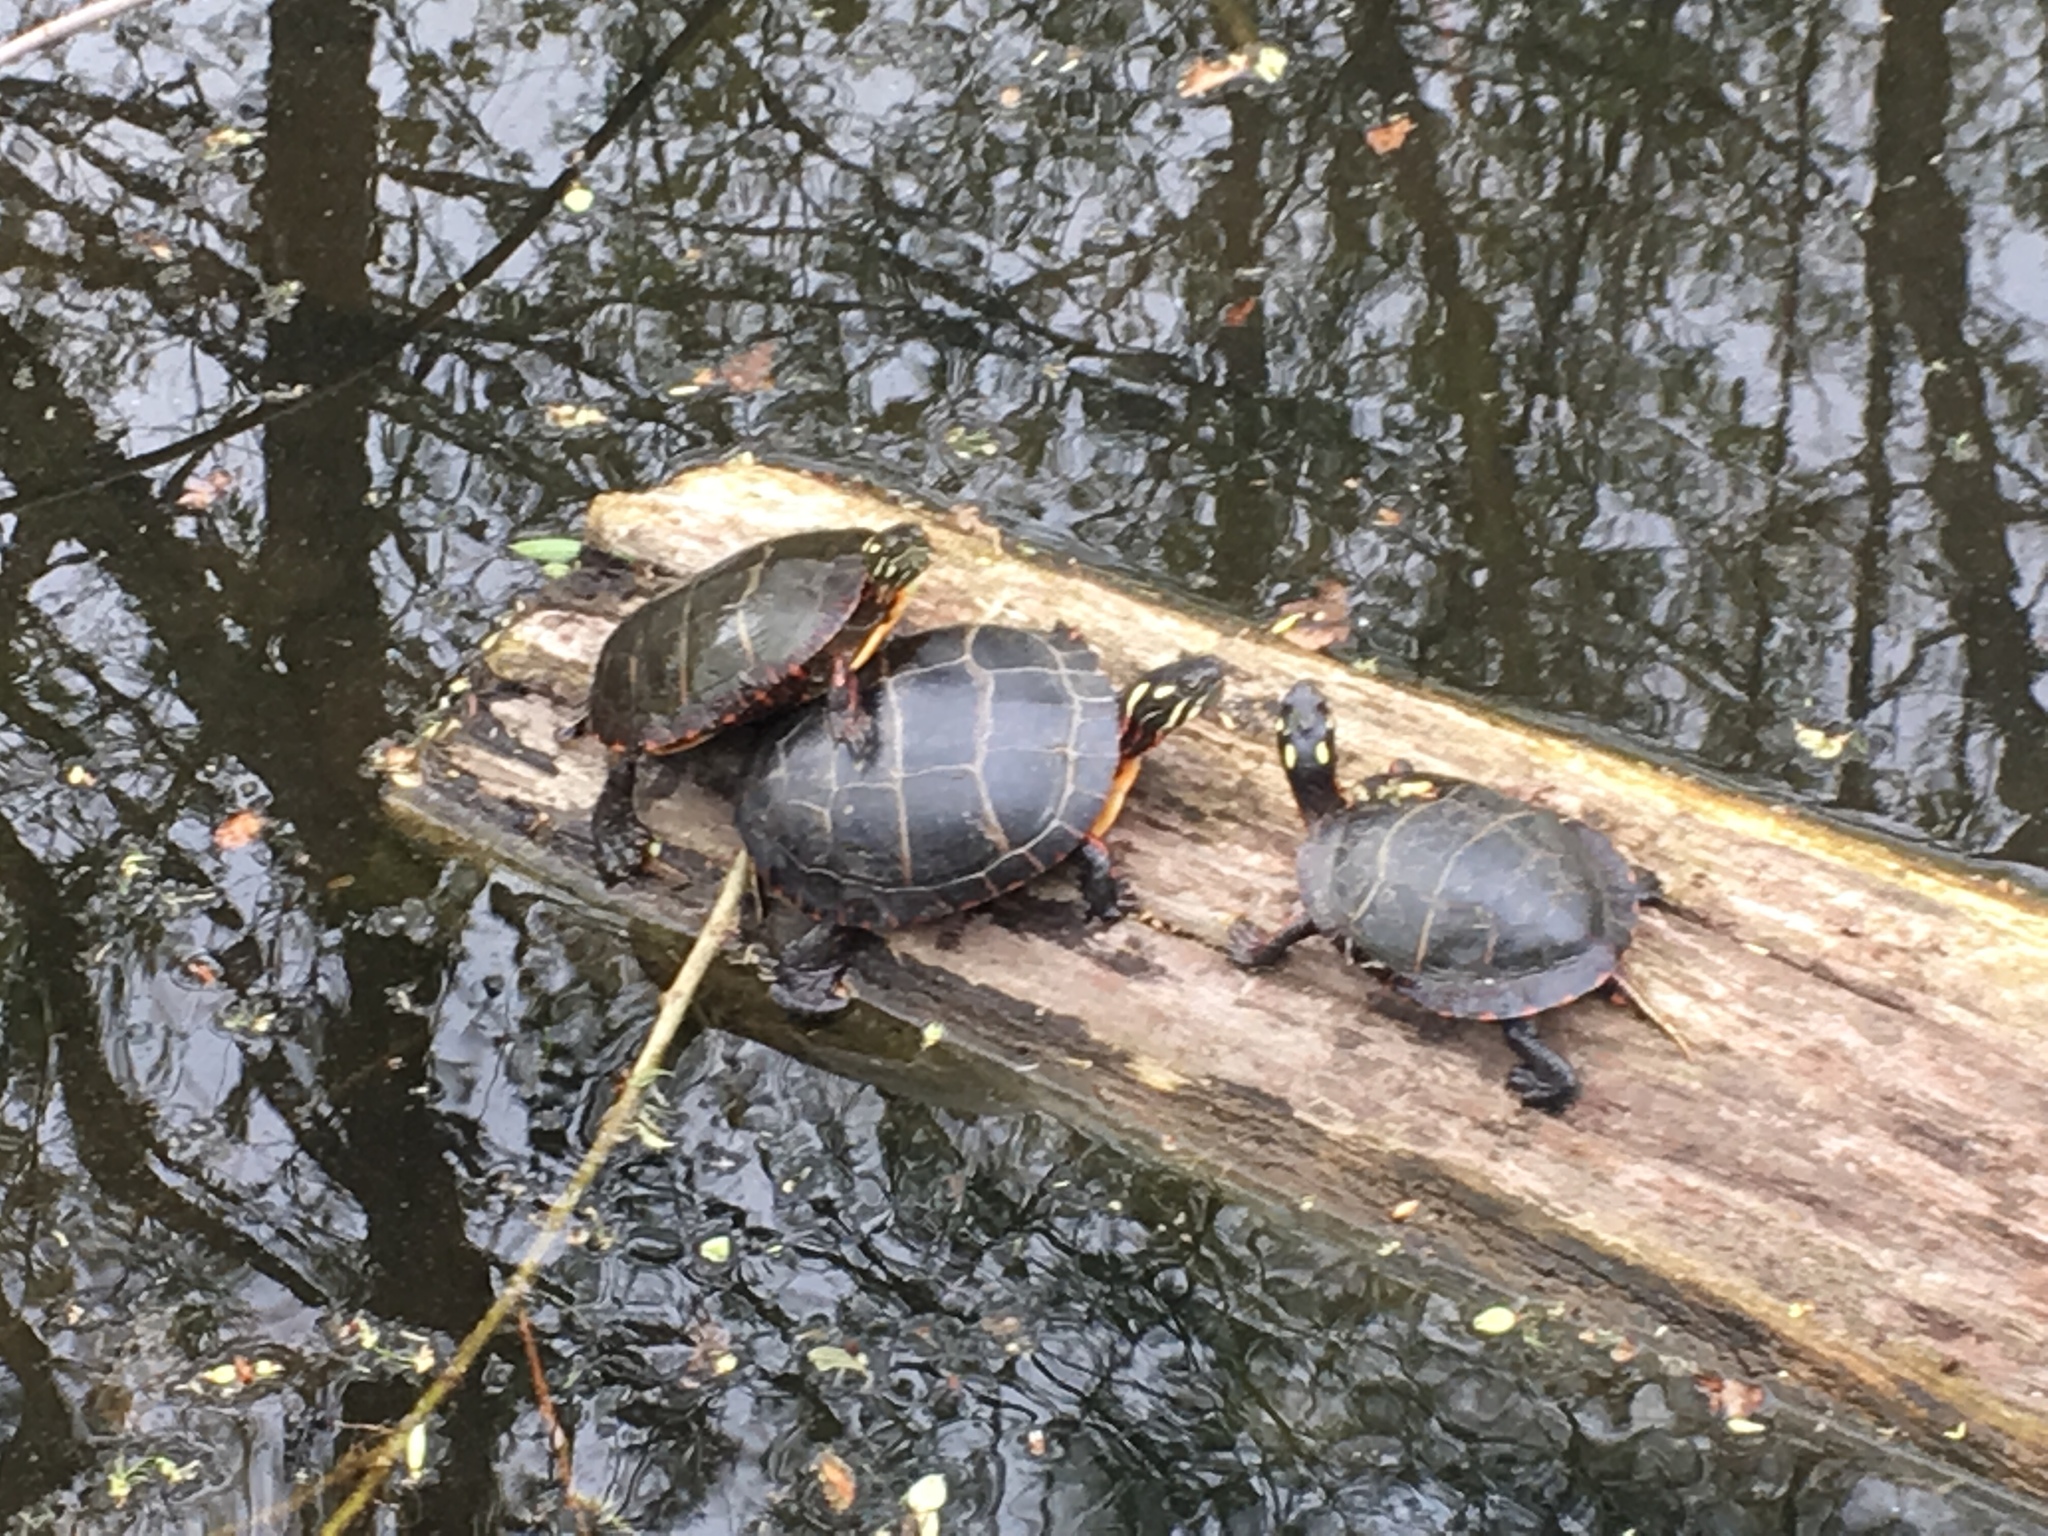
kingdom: Animalia
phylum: Chordata
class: Testudines
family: Emydidae
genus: Chrysemys
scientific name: Chrysemys picta
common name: Painted turtle
